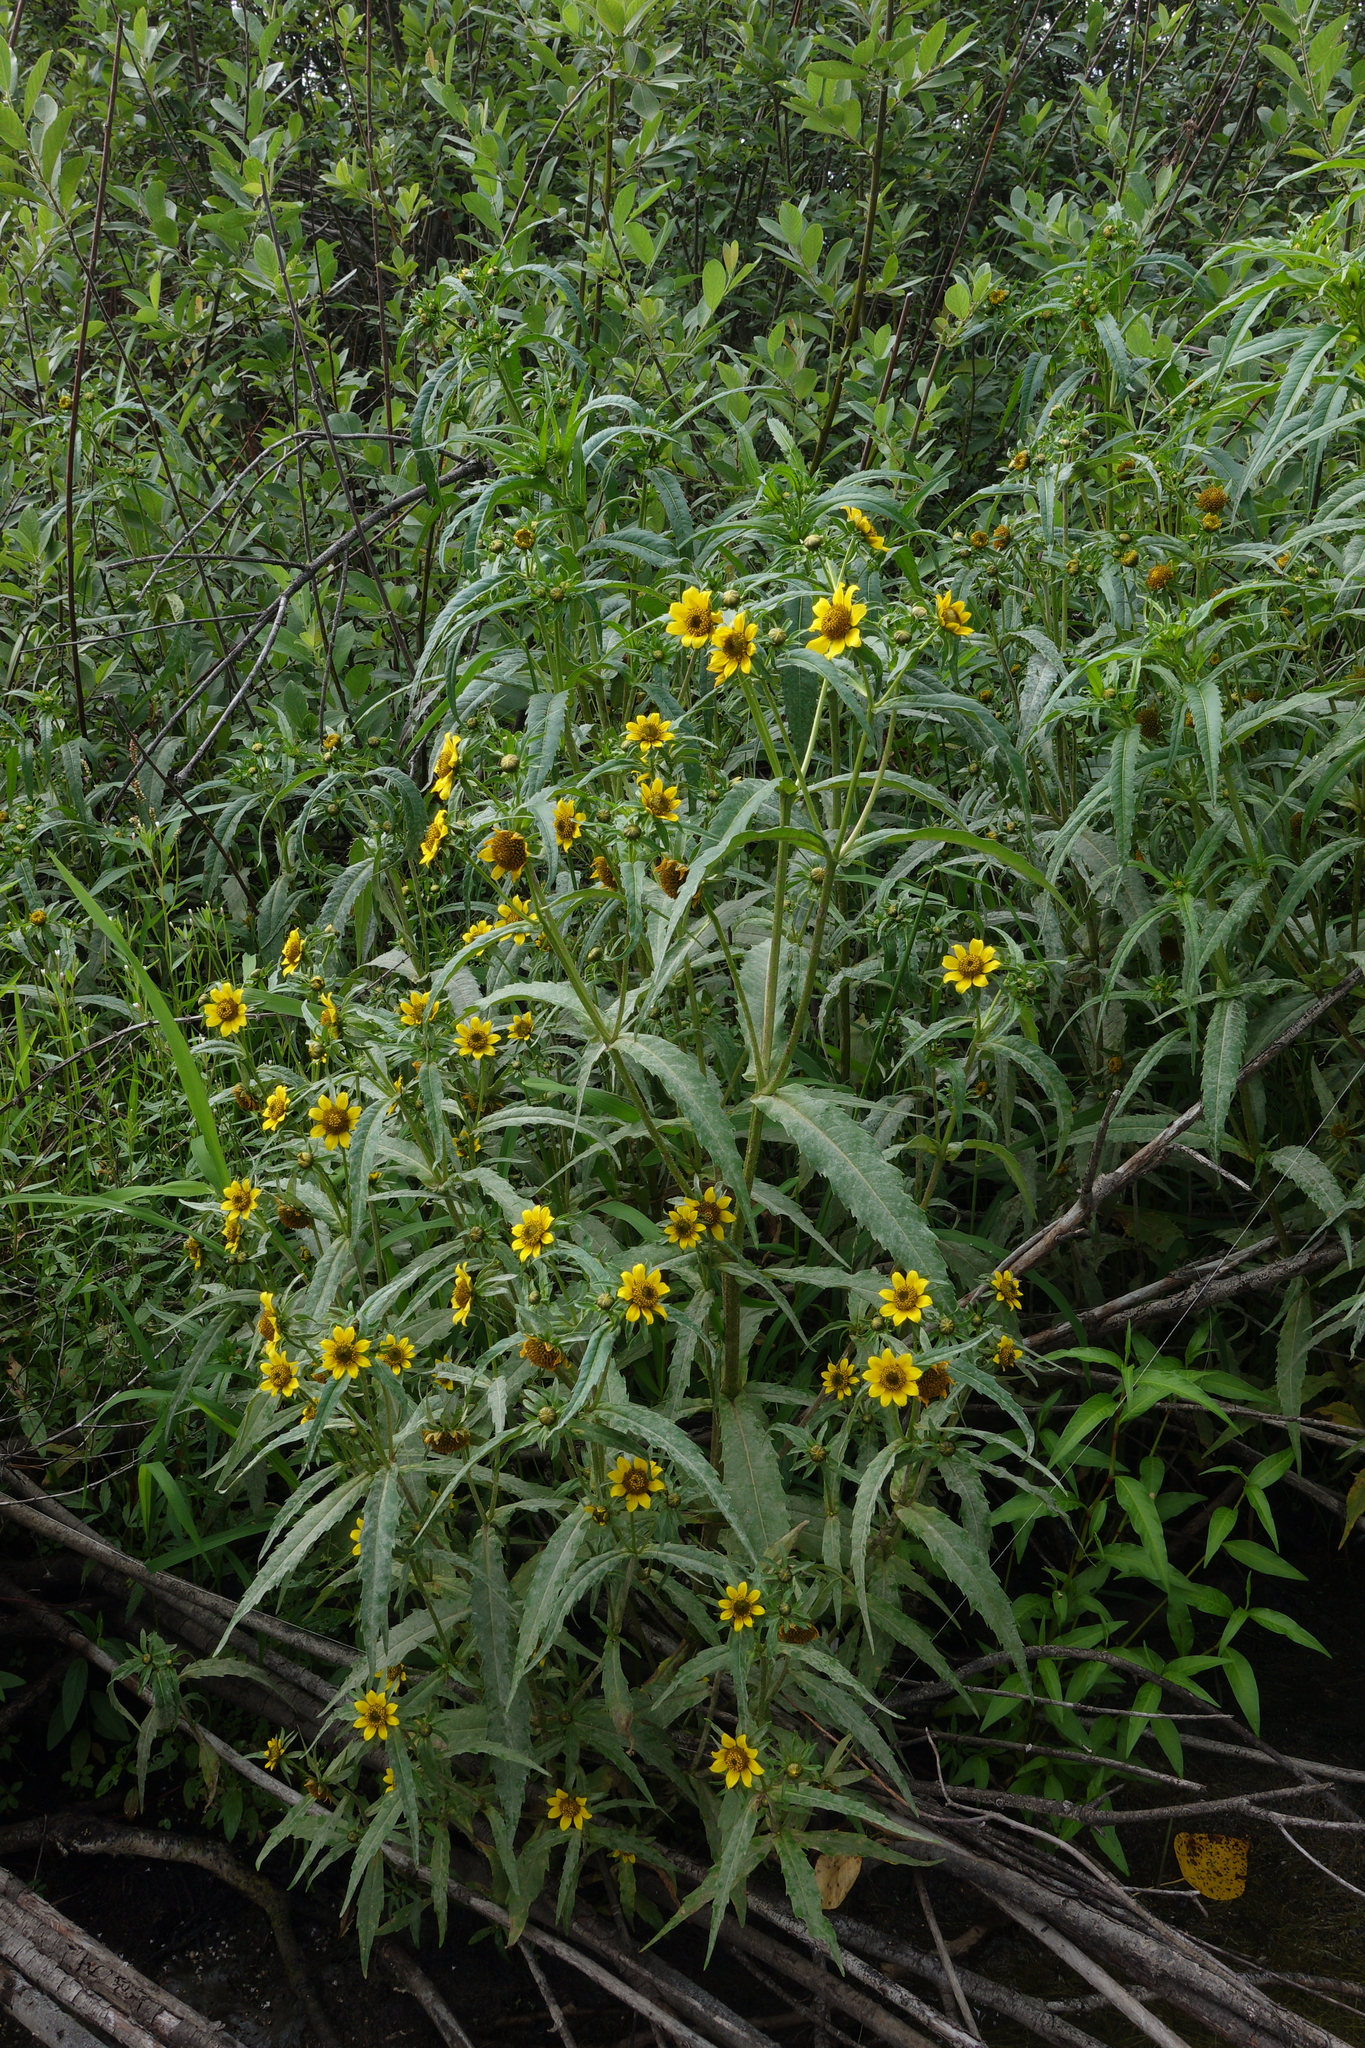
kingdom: Plantae
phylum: Tracheophyta
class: Magnoliopsida
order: Asterales
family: Asteraceae
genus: Bidens
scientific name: Bidens cernua
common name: Nodding bur-marigold
